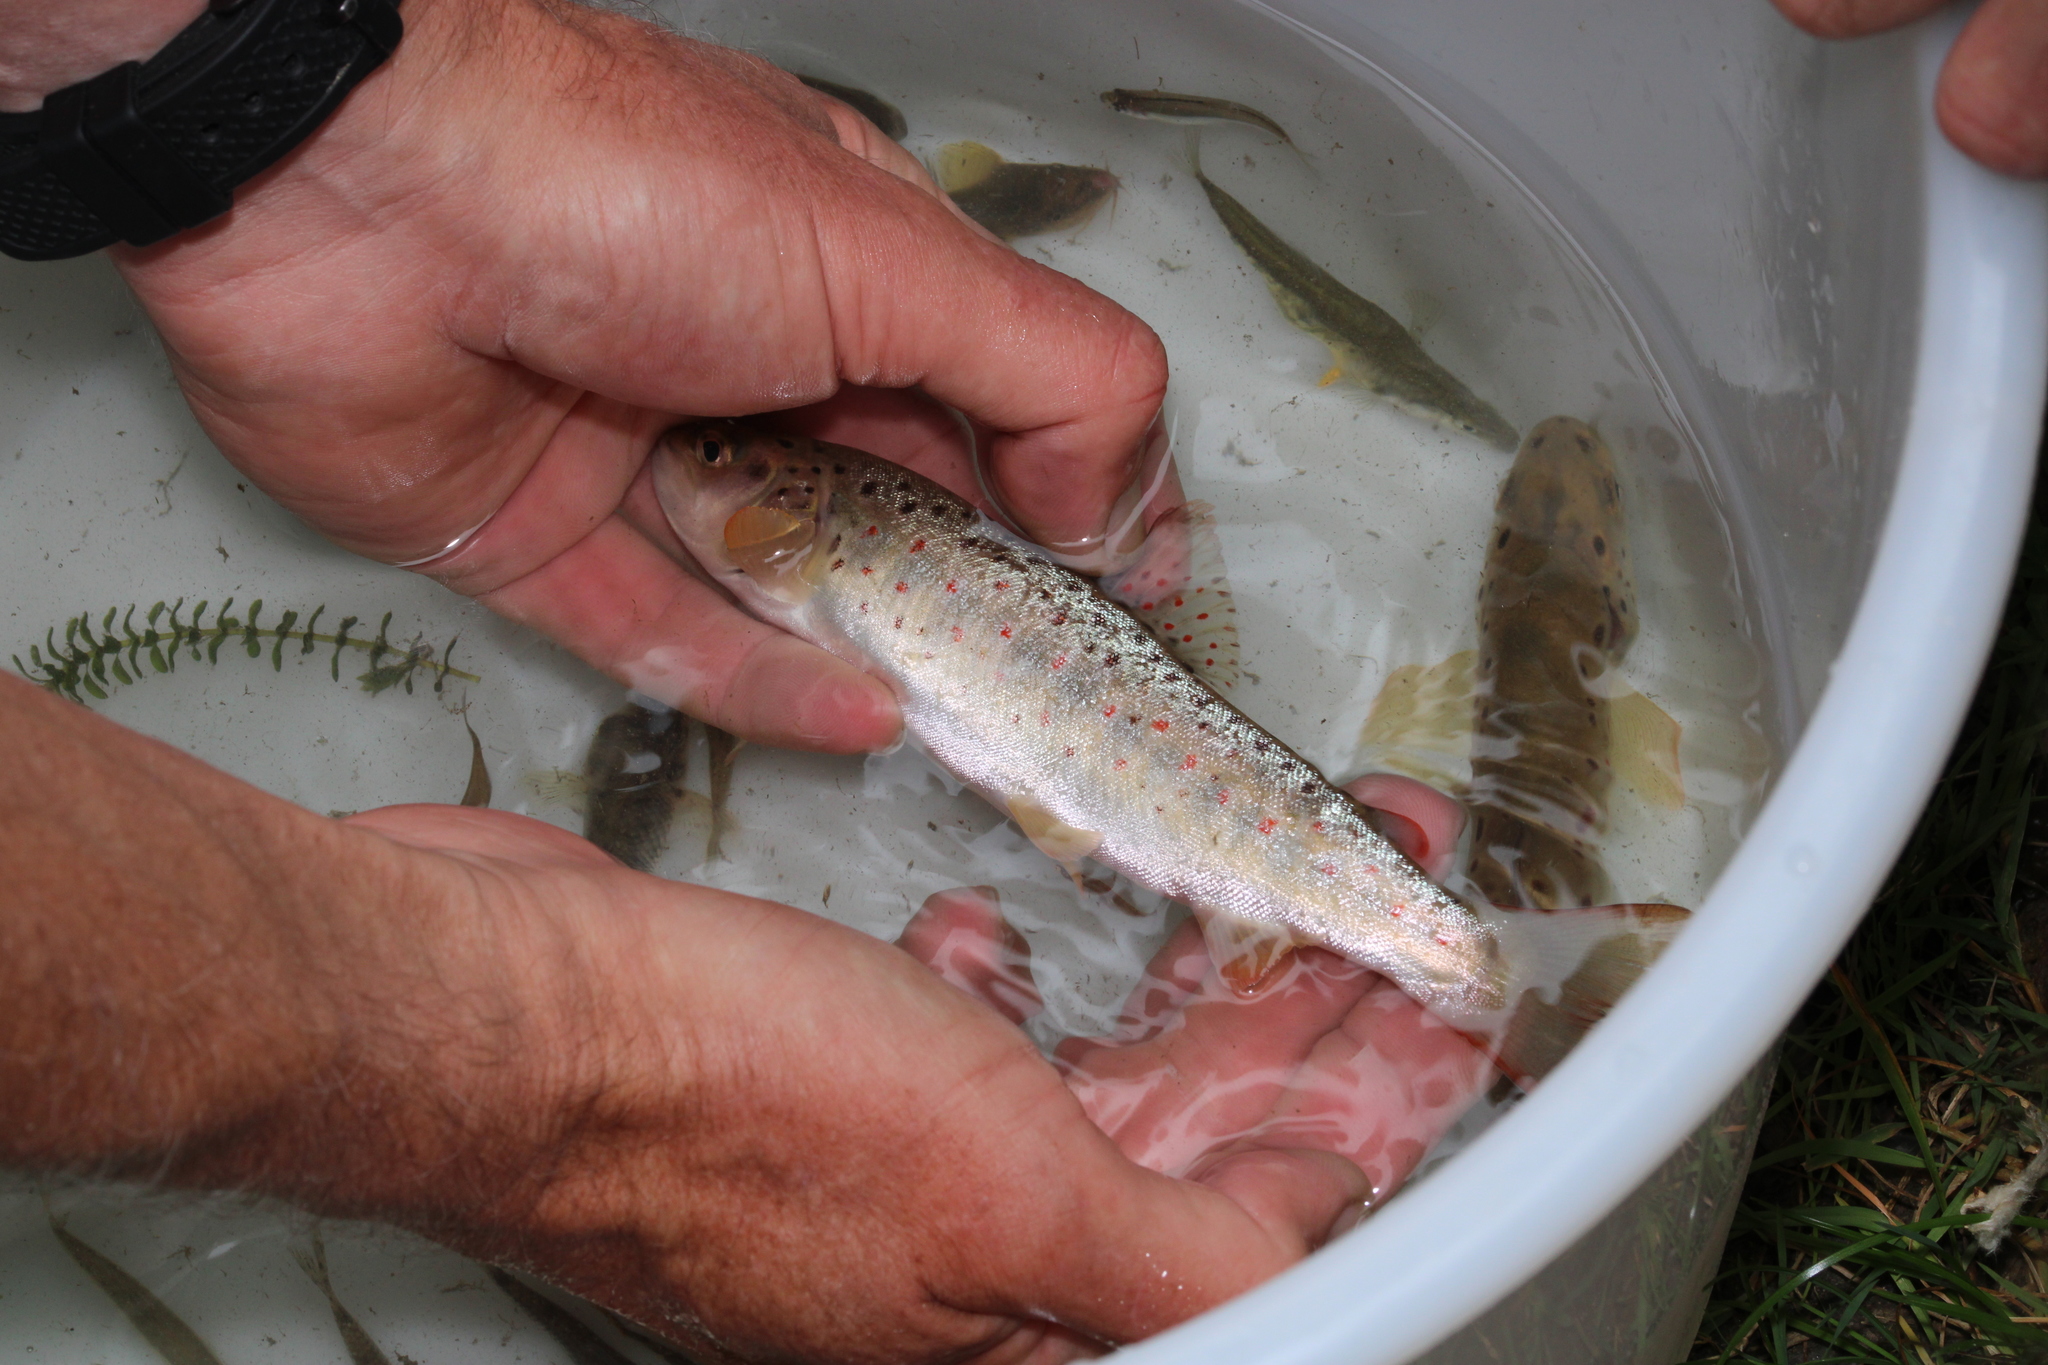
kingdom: Animalia
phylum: Chordata
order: Salmoniformes
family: Salmonidae
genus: Salmo
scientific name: Salmo trutta
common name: Brown trout
